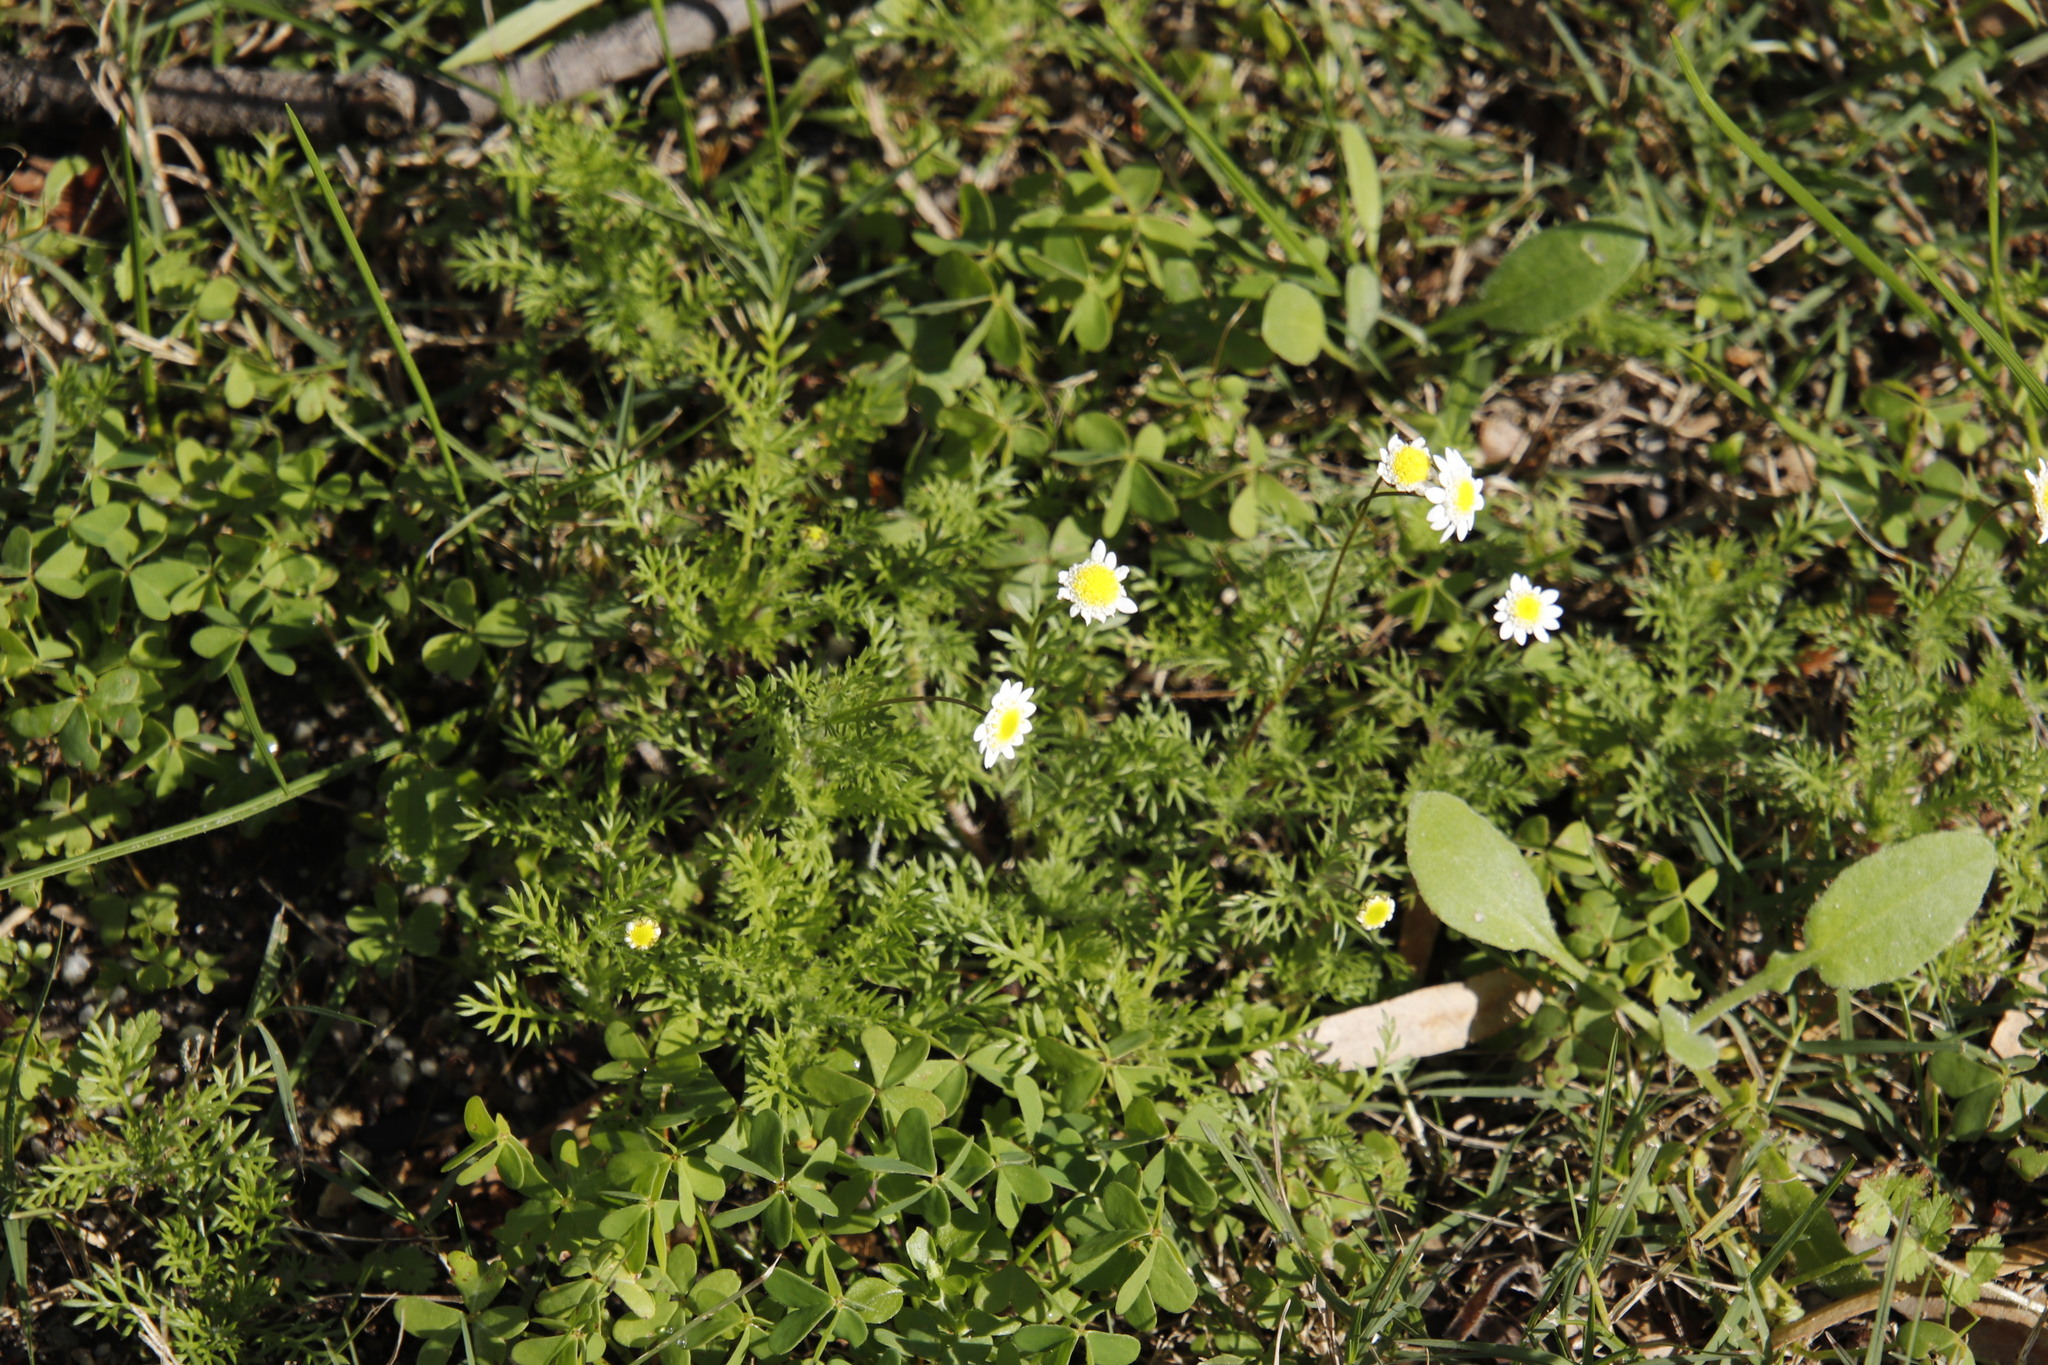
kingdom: Plantae
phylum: Tracheophyta
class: Magnoliopsida
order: Asterales
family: Asteraceae
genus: Cotula
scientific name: Cotula turbinata
